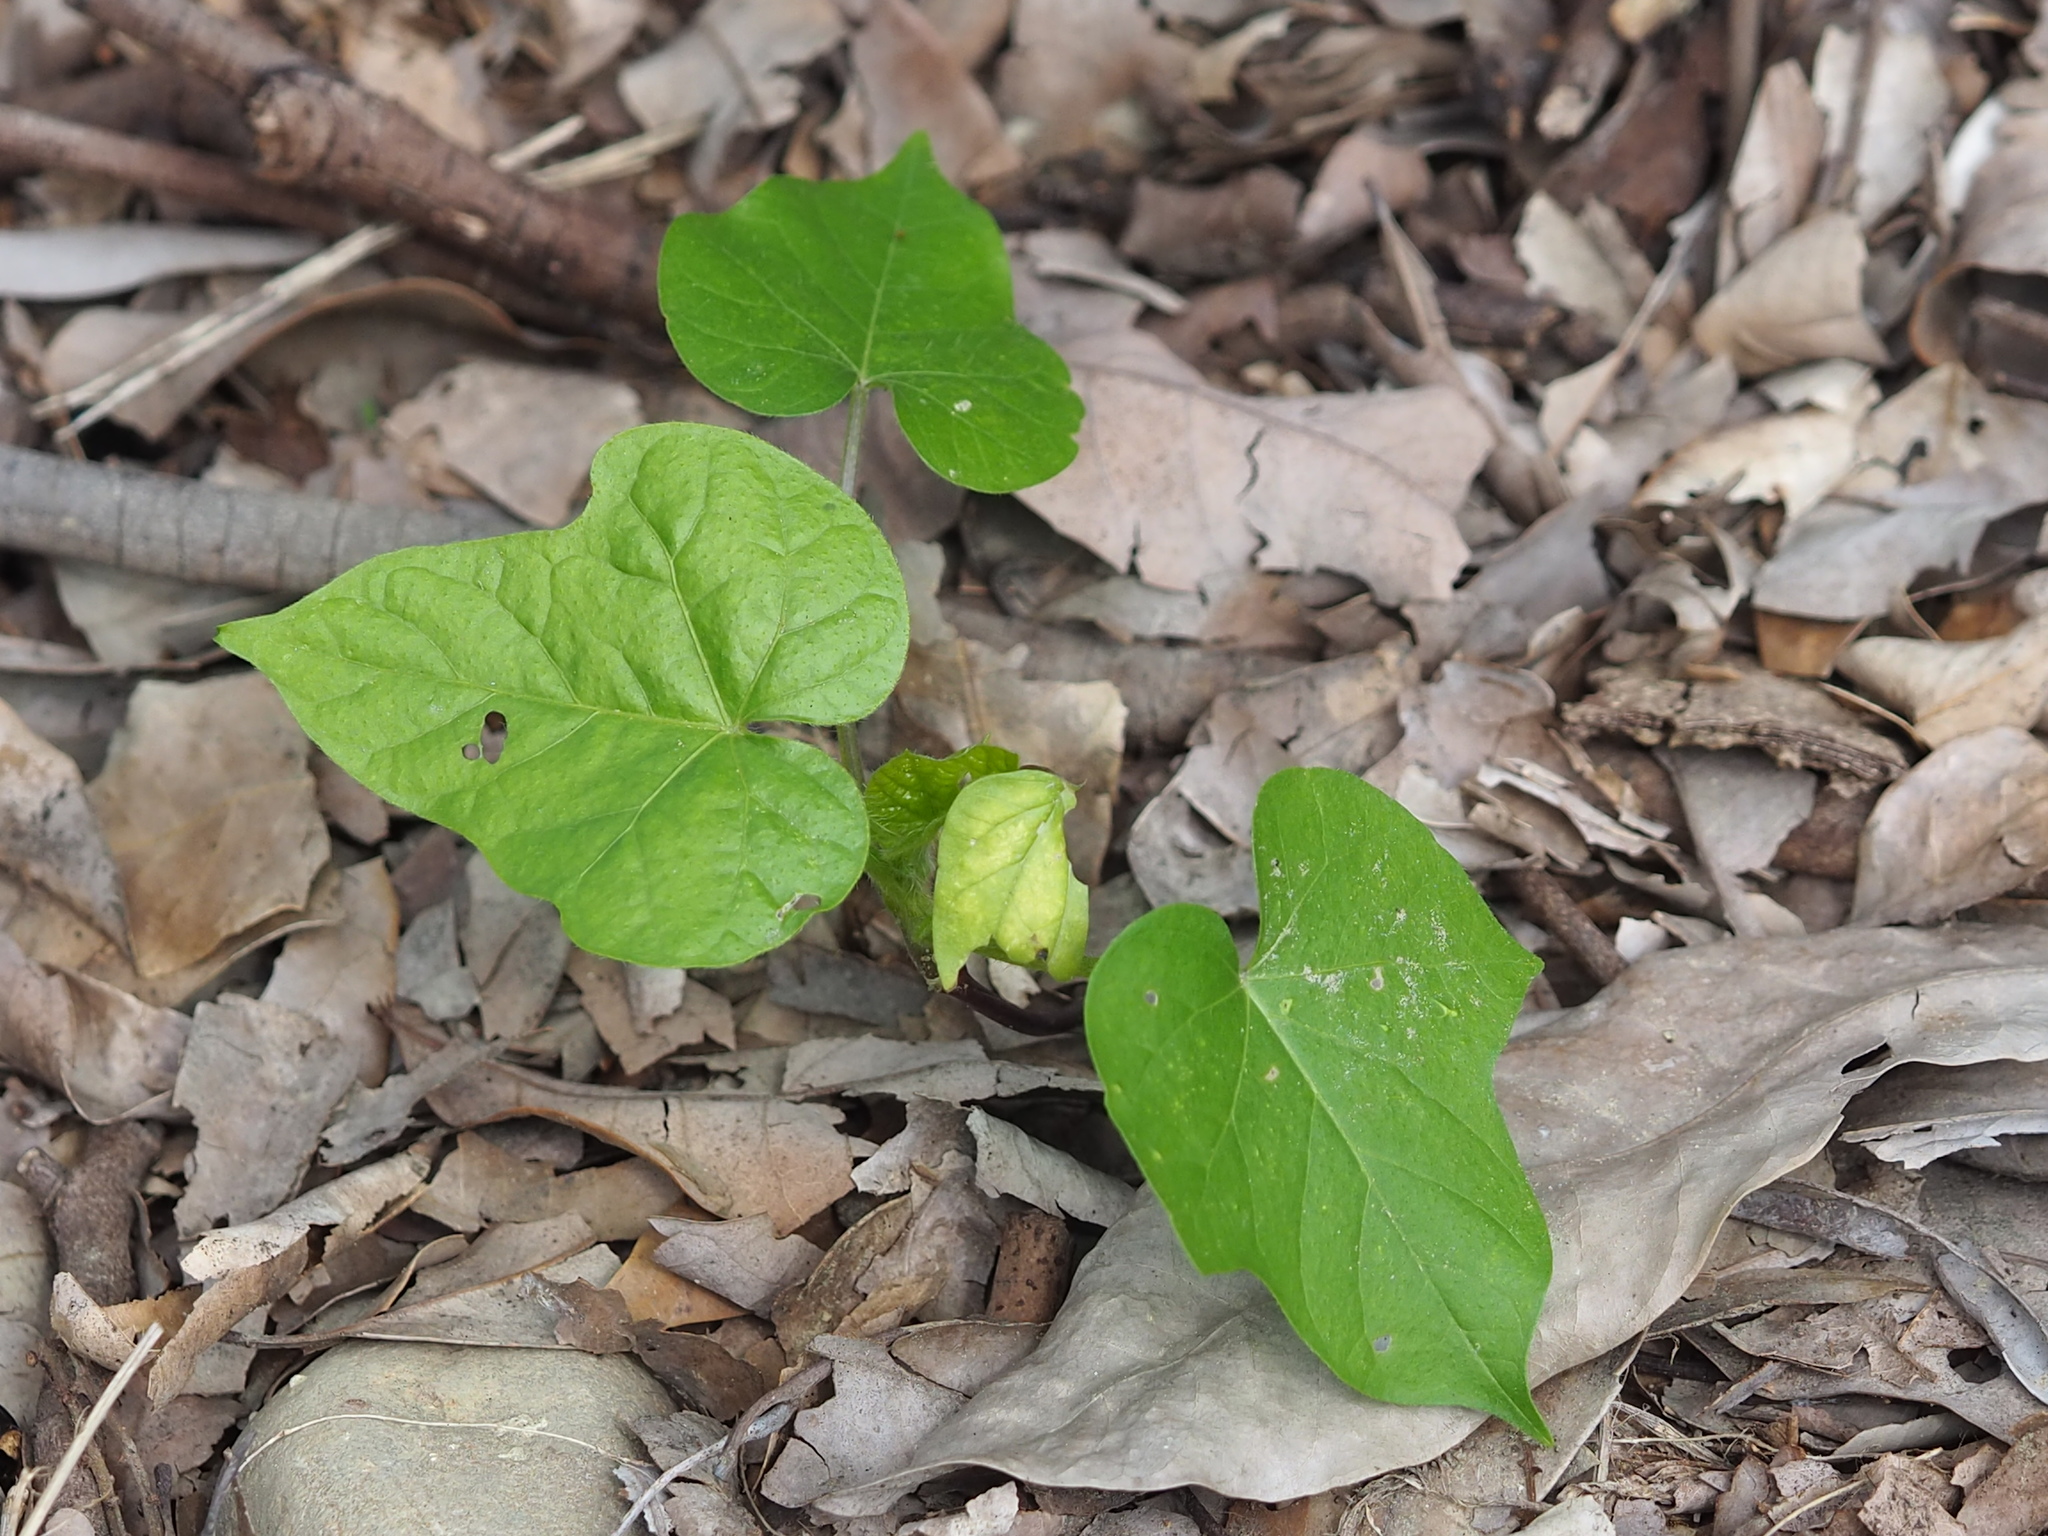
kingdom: Plantae
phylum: Tracheophyta
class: Magnoliopsida
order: Malpighiales
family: Passifloraceae
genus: Passiflora
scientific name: Passiflora vesicaria
